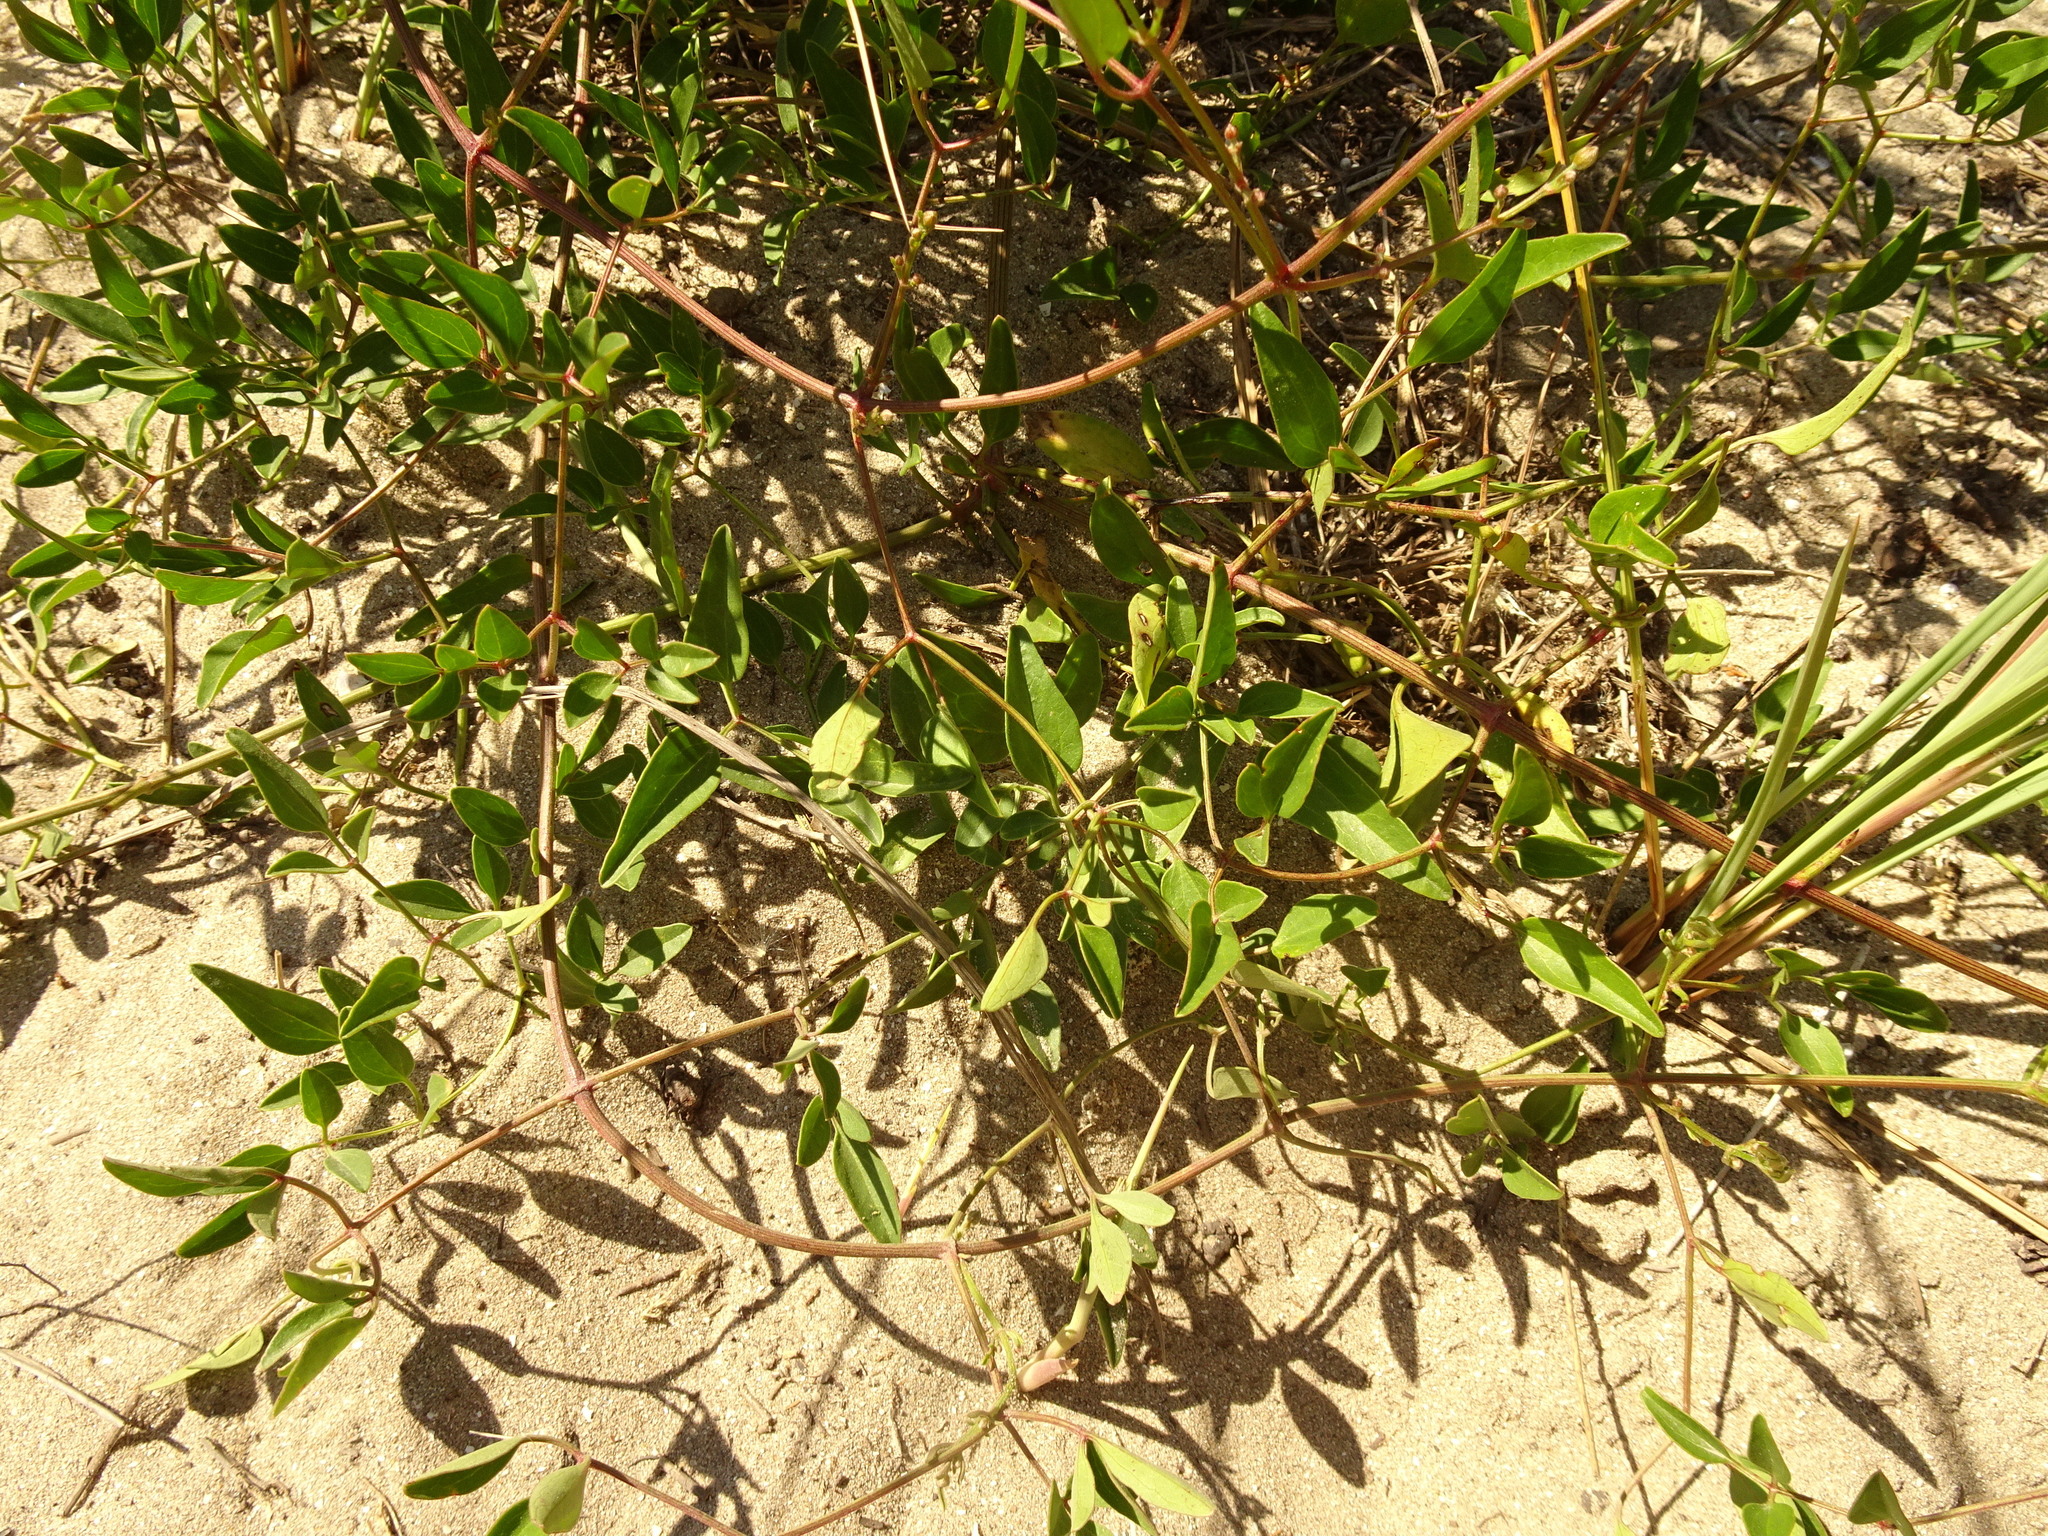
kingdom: Plantae
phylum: Tracheophyta
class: Magnoliopsida
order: Ranunculales
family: Ranunculaceae
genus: Clematis
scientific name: Clematis flammula
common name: Virgin's-bower
